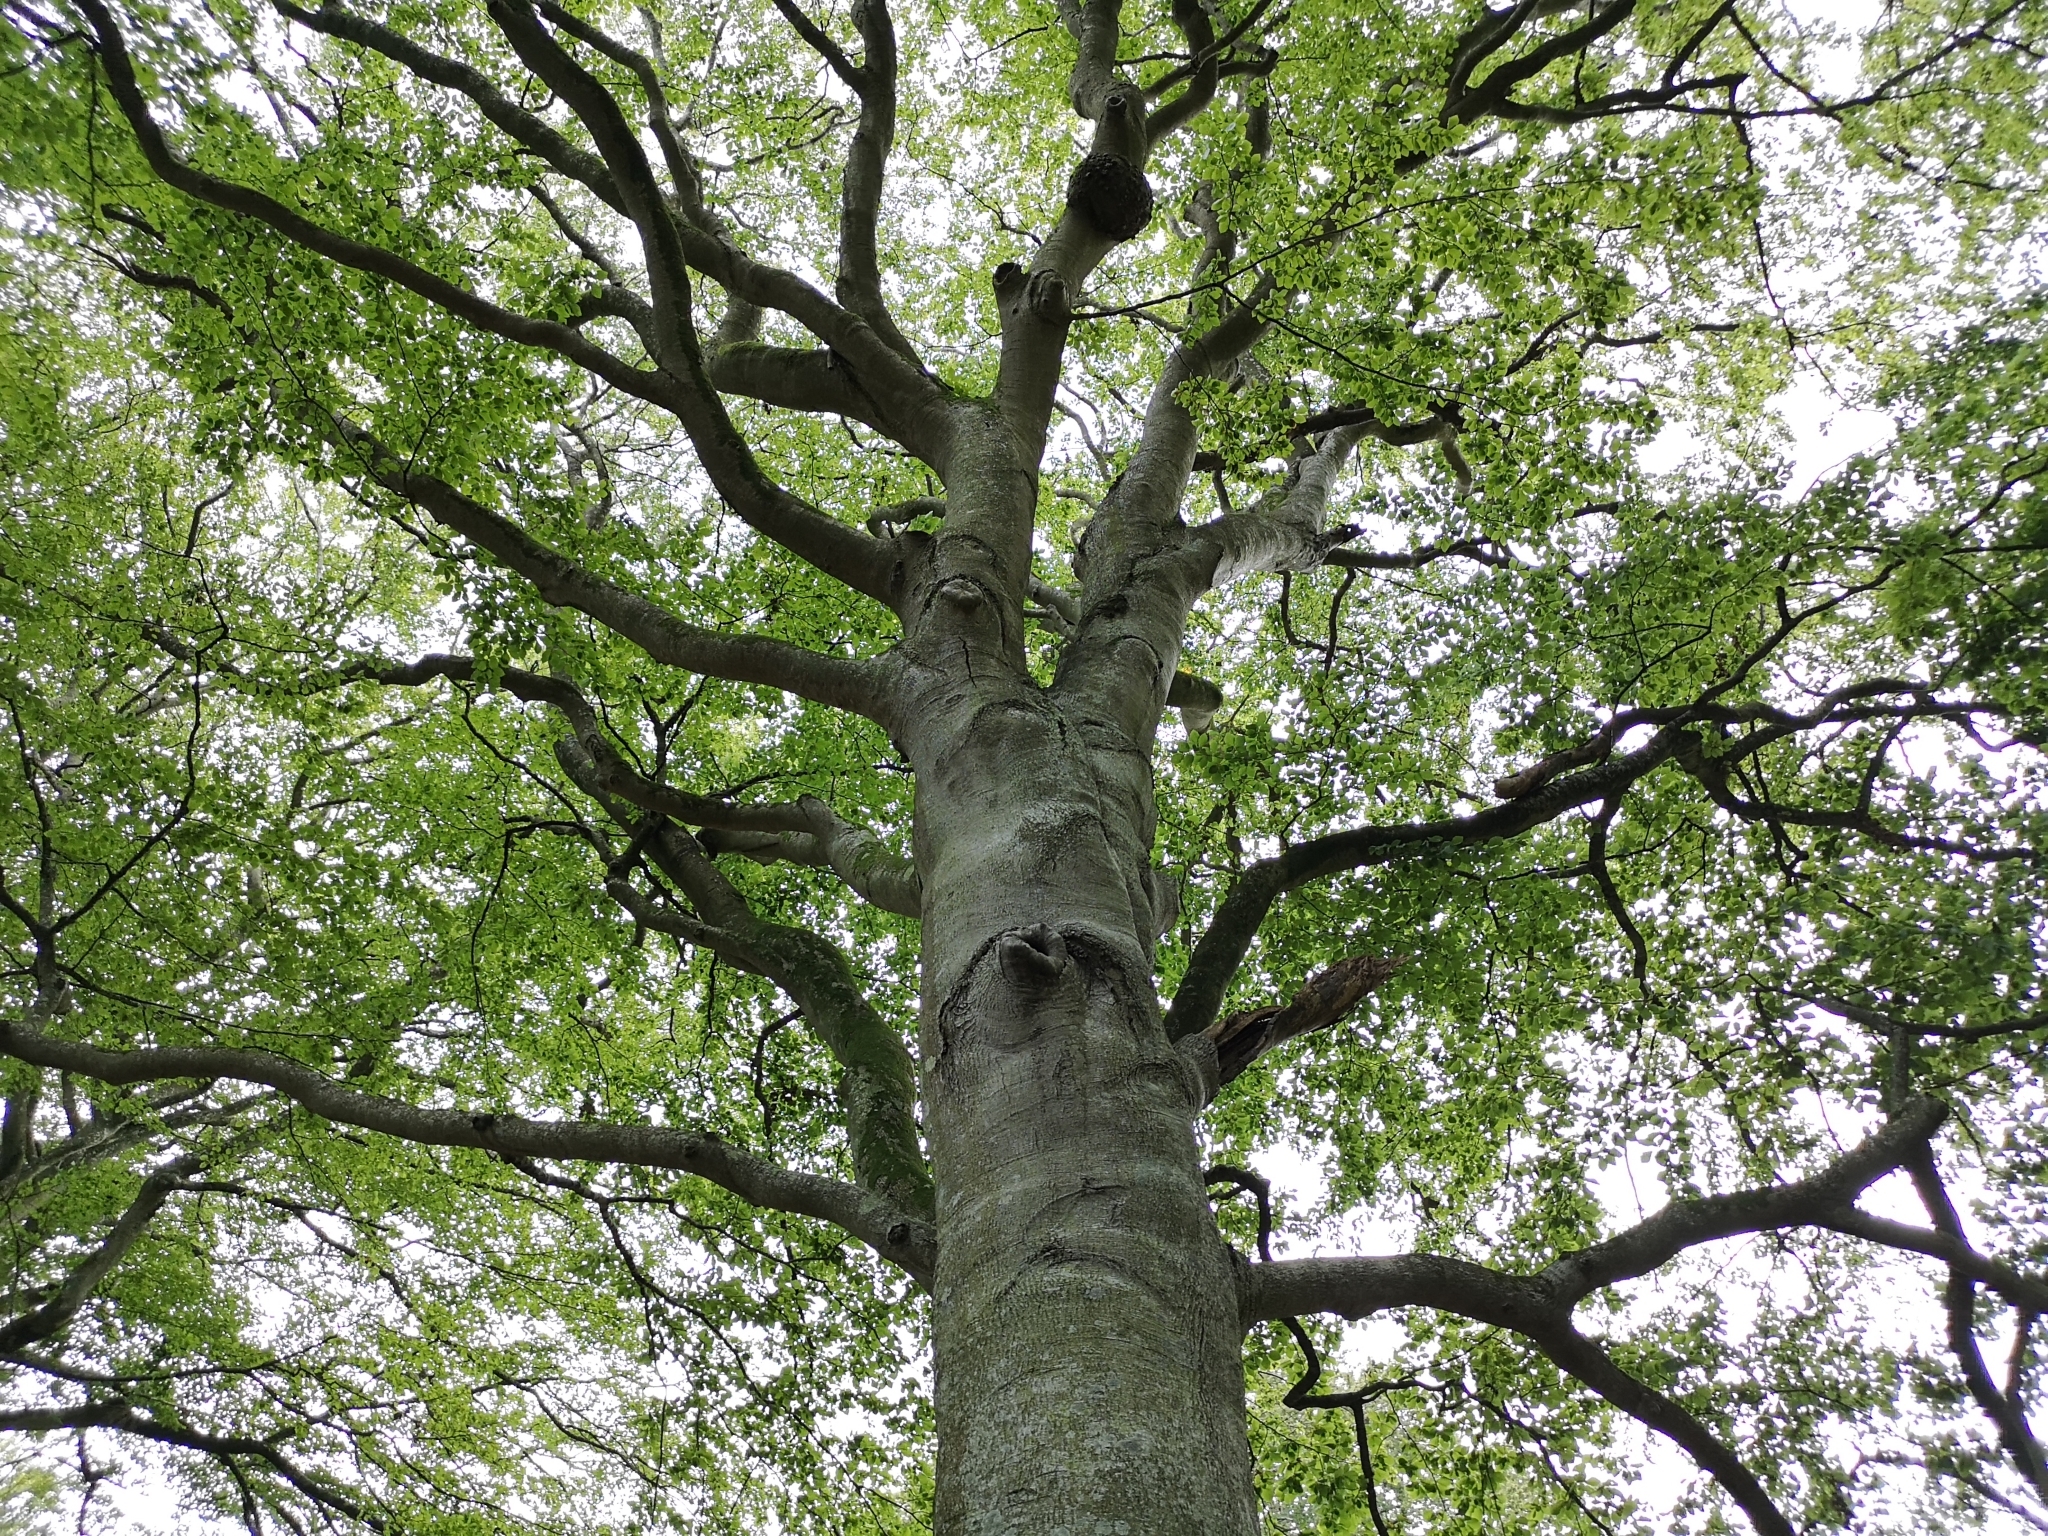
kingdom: Plantae
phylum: Tracheophyta
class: Magnoliopsida
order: Fagales
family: Fagaceae
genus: Fagus
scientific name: Fagus sylvatica
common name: Beech
